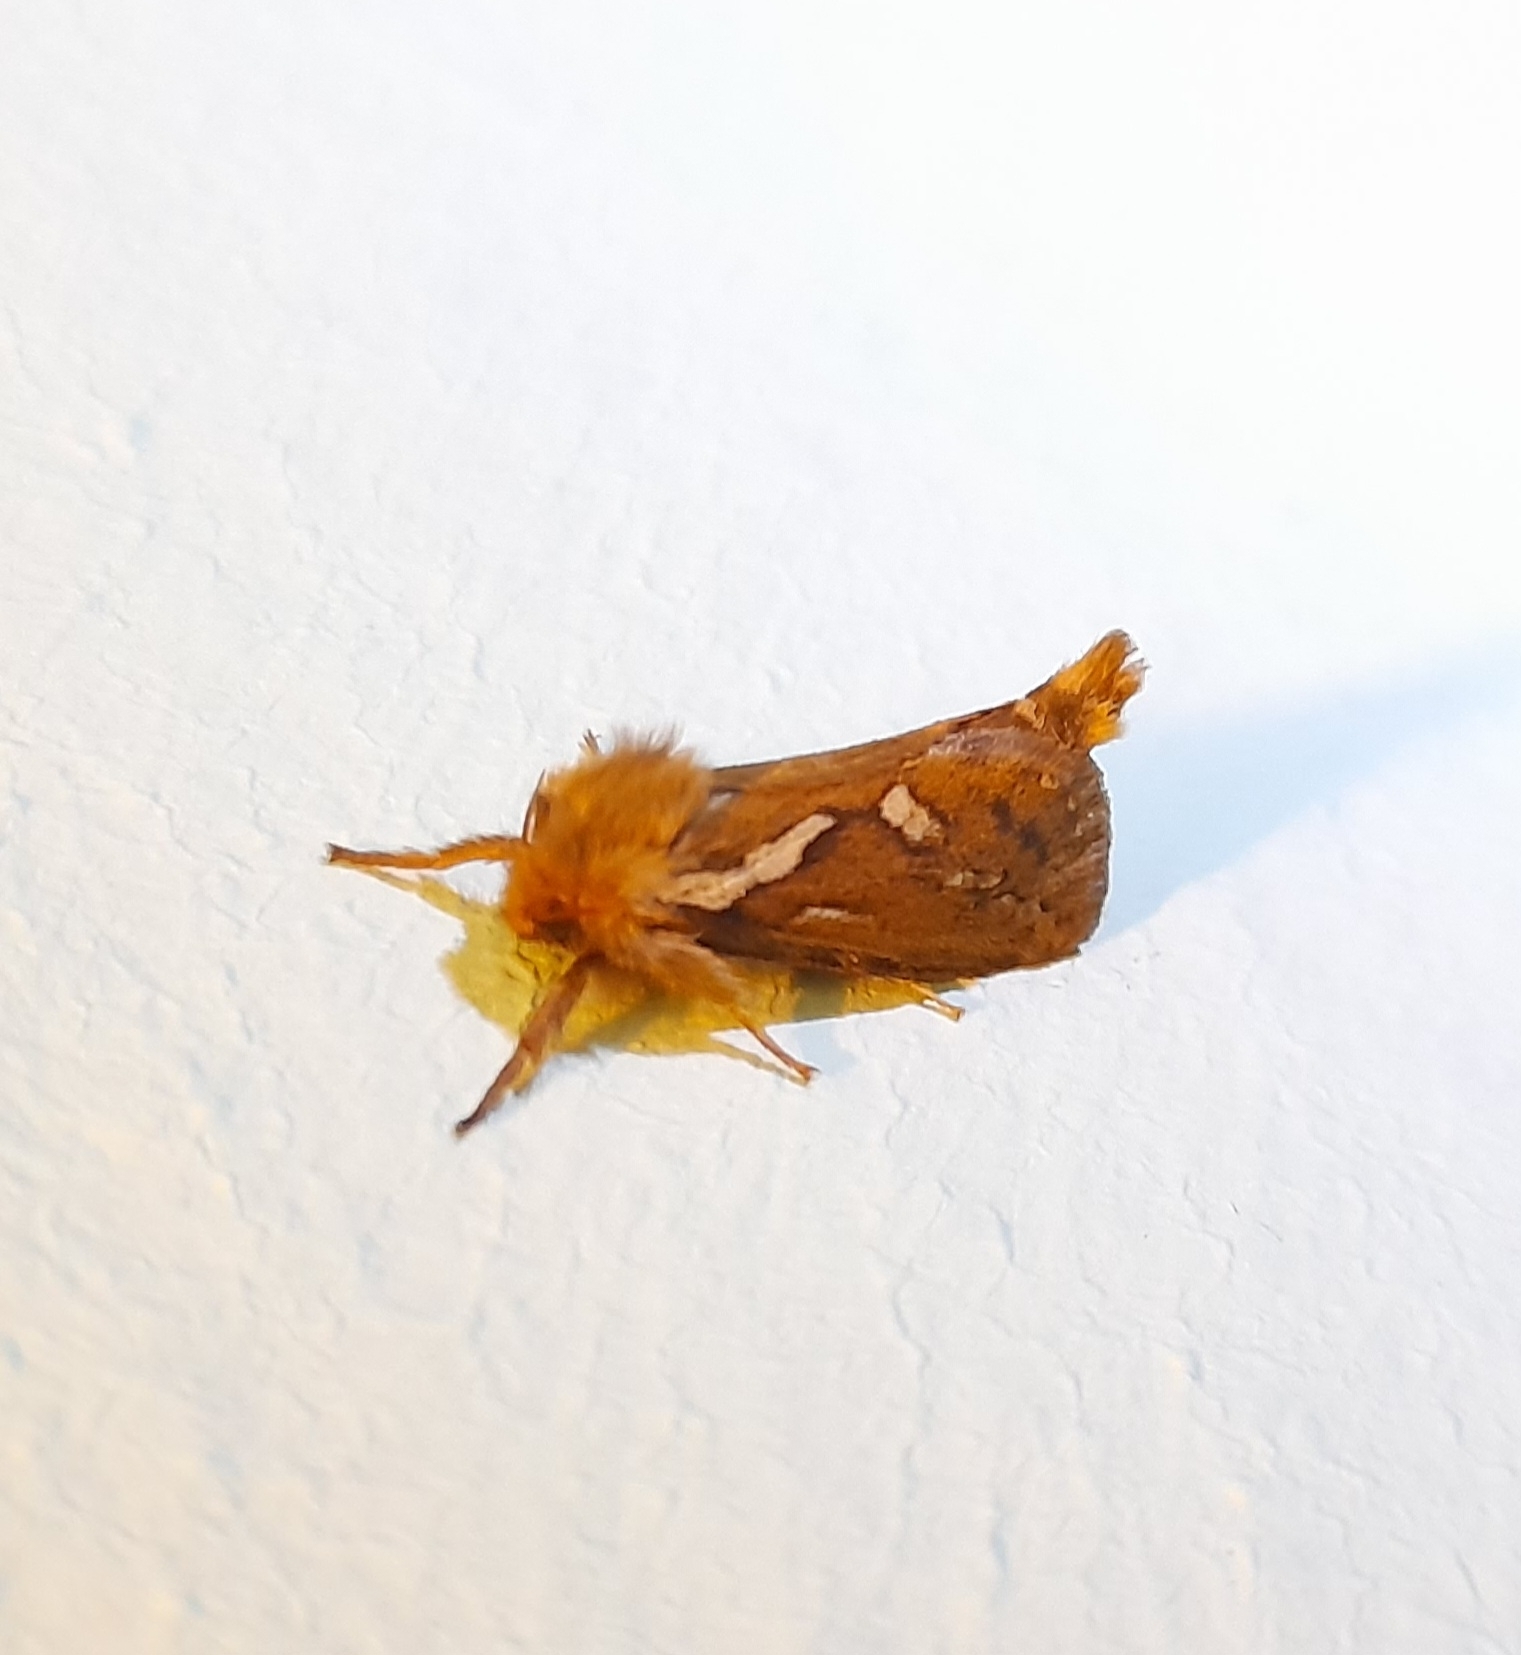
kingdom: Animalia
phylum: Arthropoda
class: Insecta
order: Lepidoptera
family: Hepialidae
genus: Korscheltellus
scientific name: Korscheltellus lupulina
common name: Common swift
